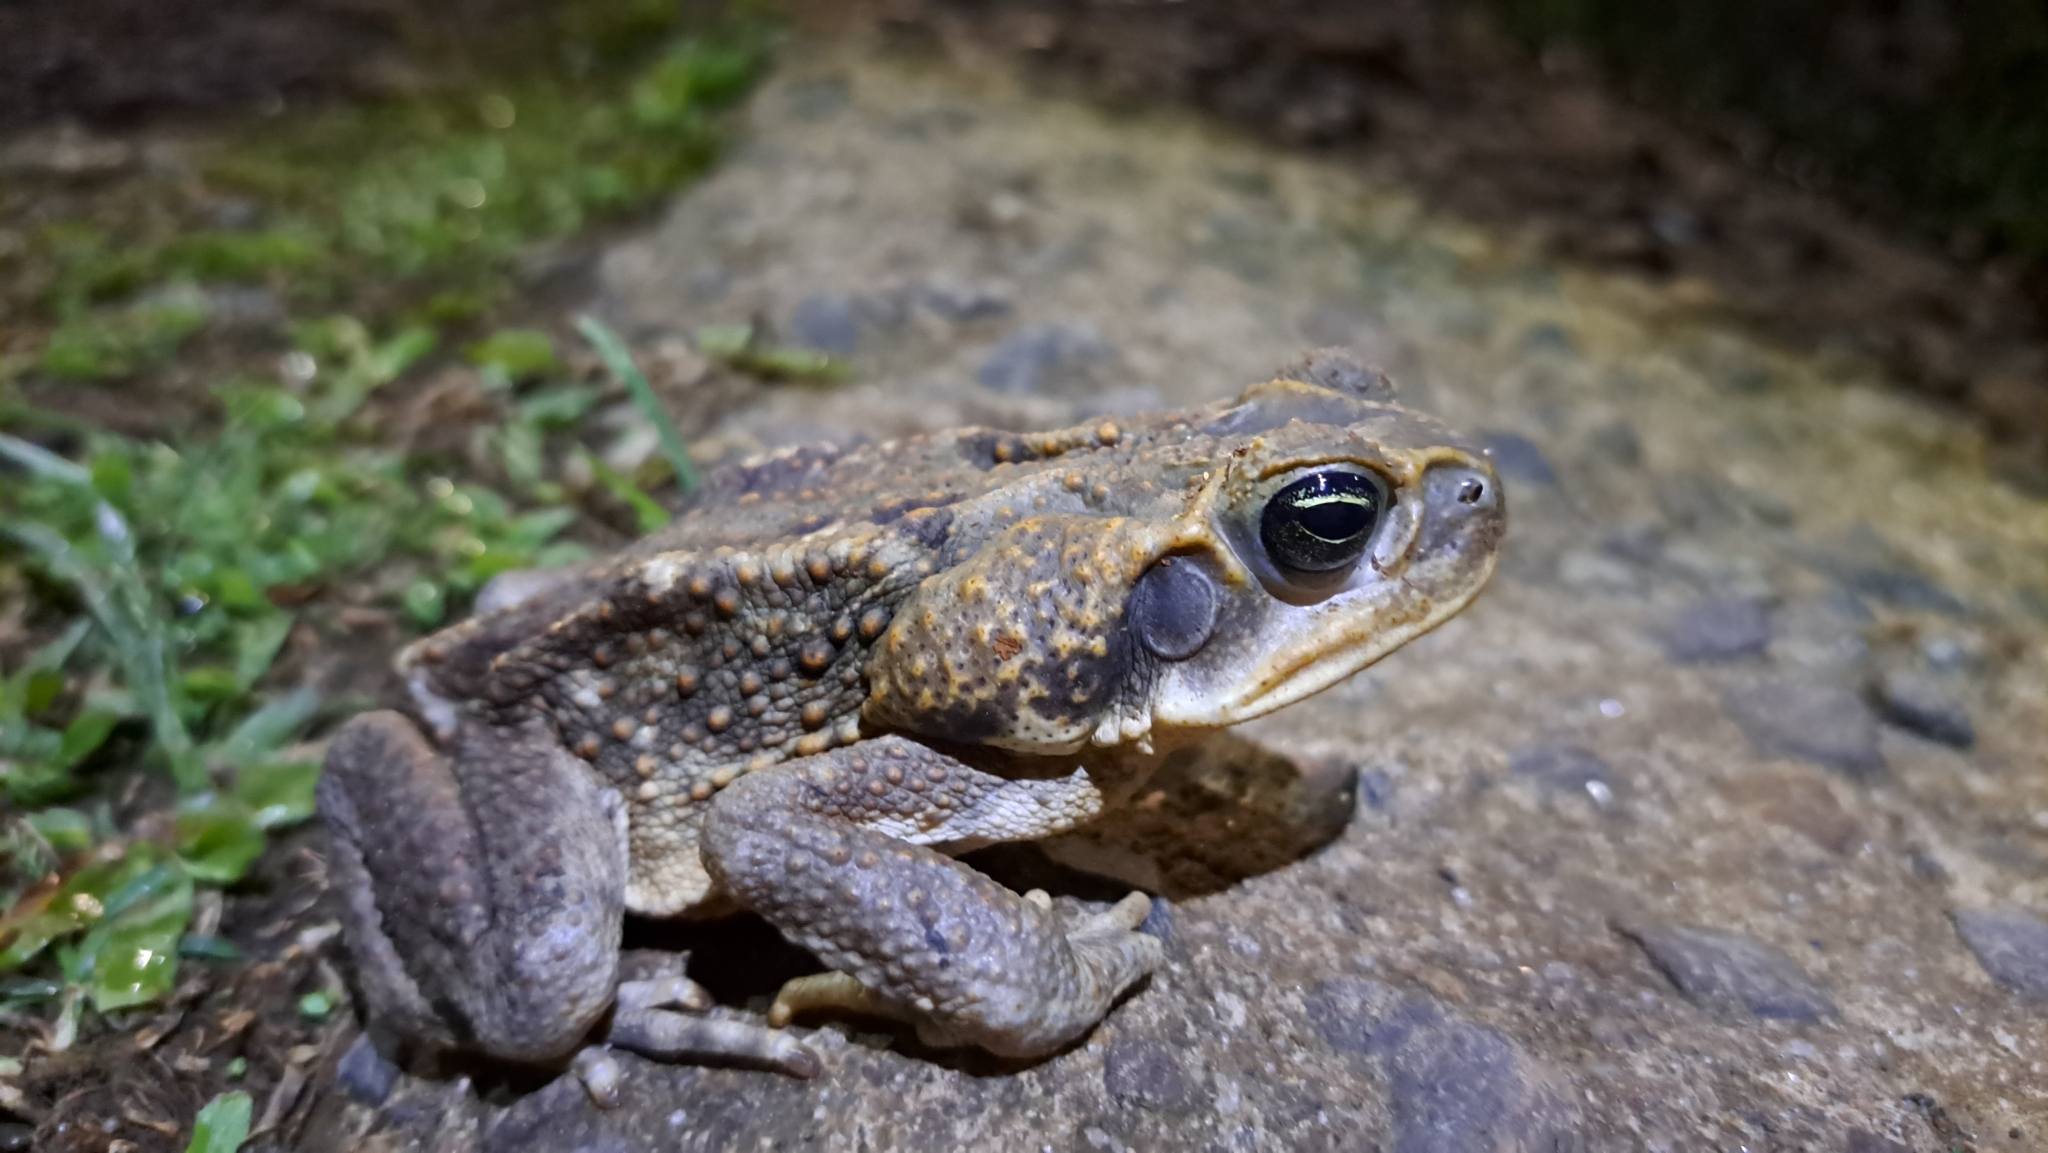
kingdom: Animalia
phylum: Chordata
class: Amphibia
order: Anura
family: Bufonidae
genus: Rhinella
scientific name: Rhinella horribilis
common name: Mesoamerican cane toad
